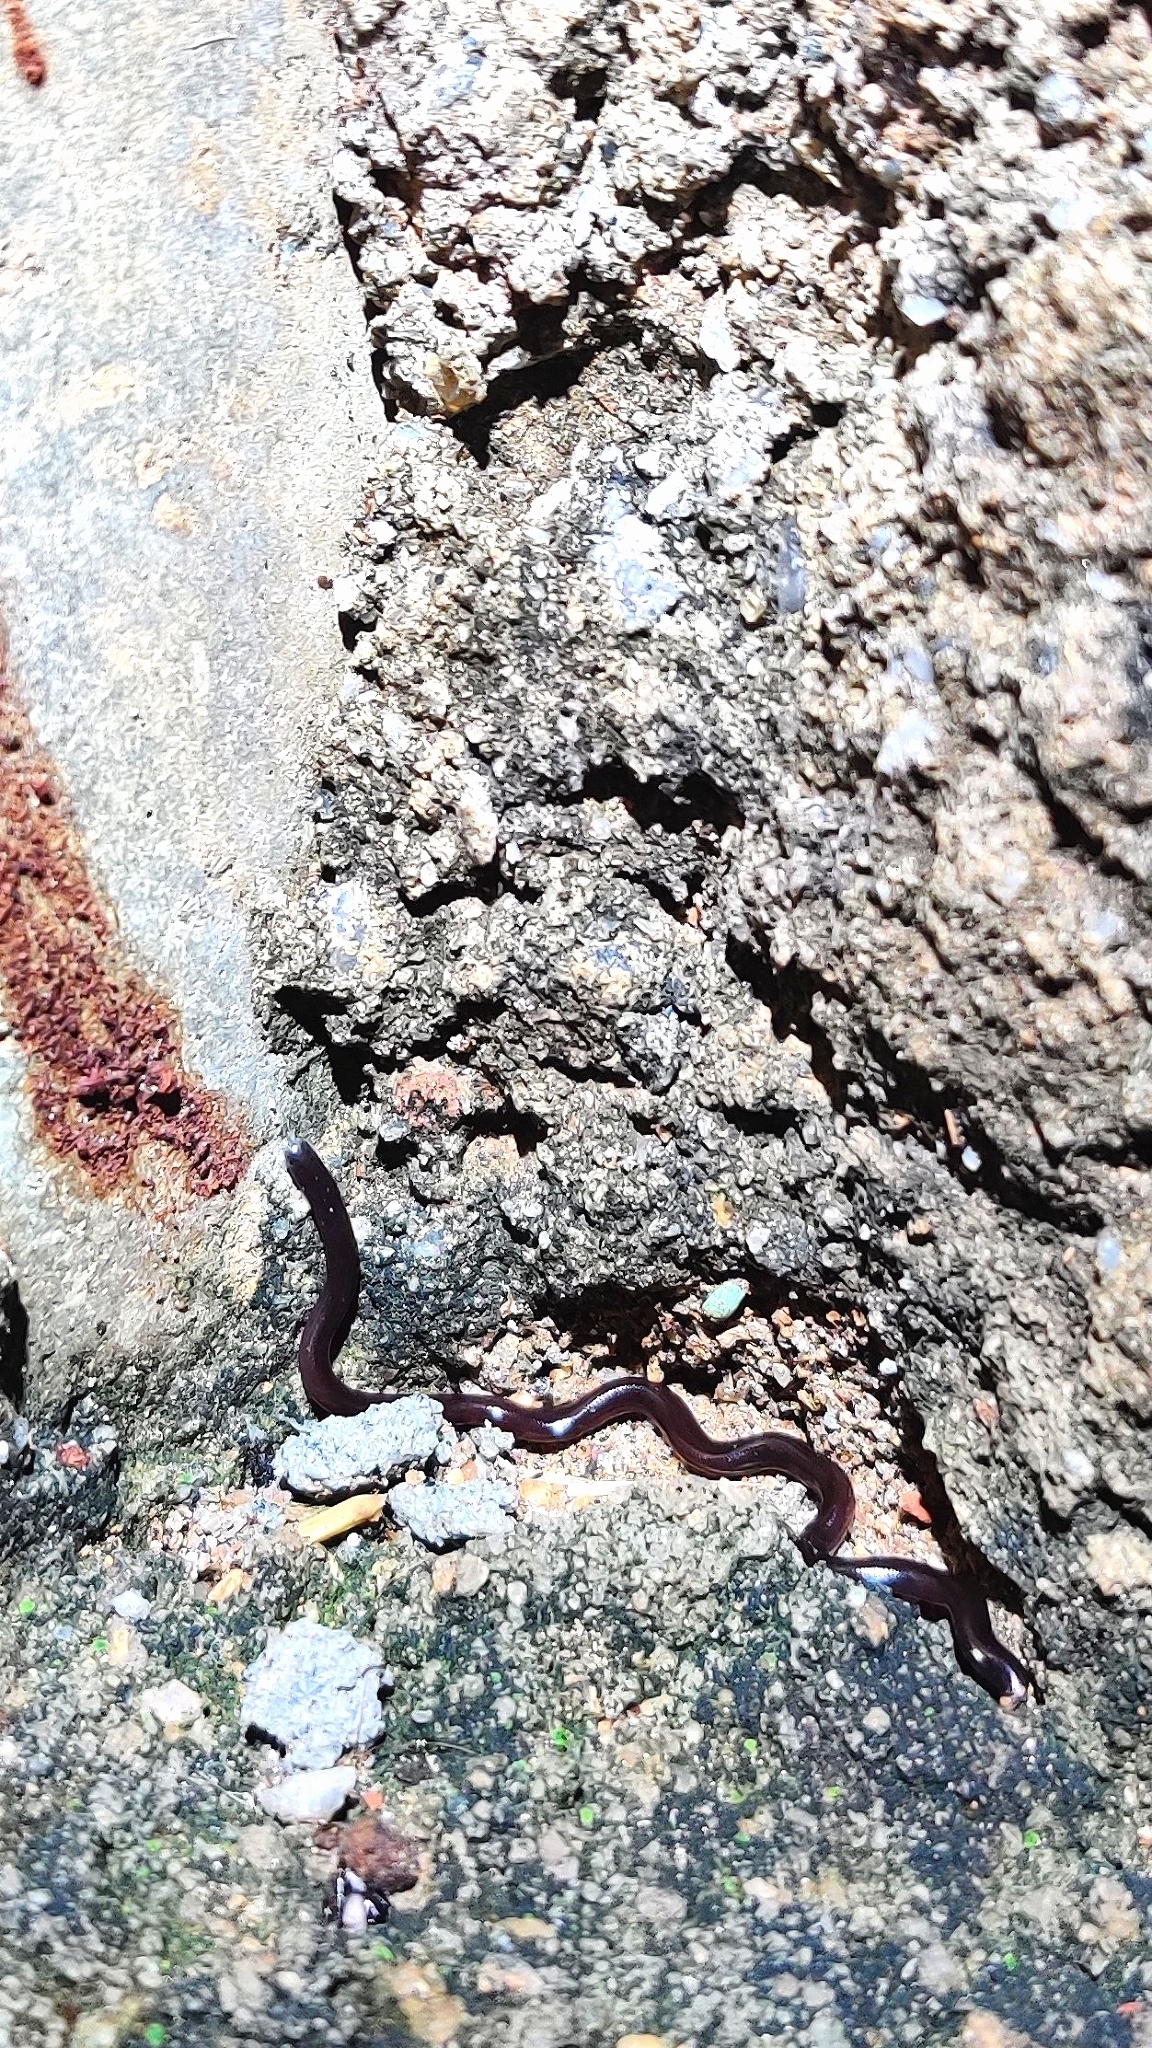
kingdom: Animalia
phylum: Chordata
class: Squamata
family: Typhlopidae
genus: Indotyphlops
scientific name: Indotyphlops braminus
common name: Brahminy blindsnake
